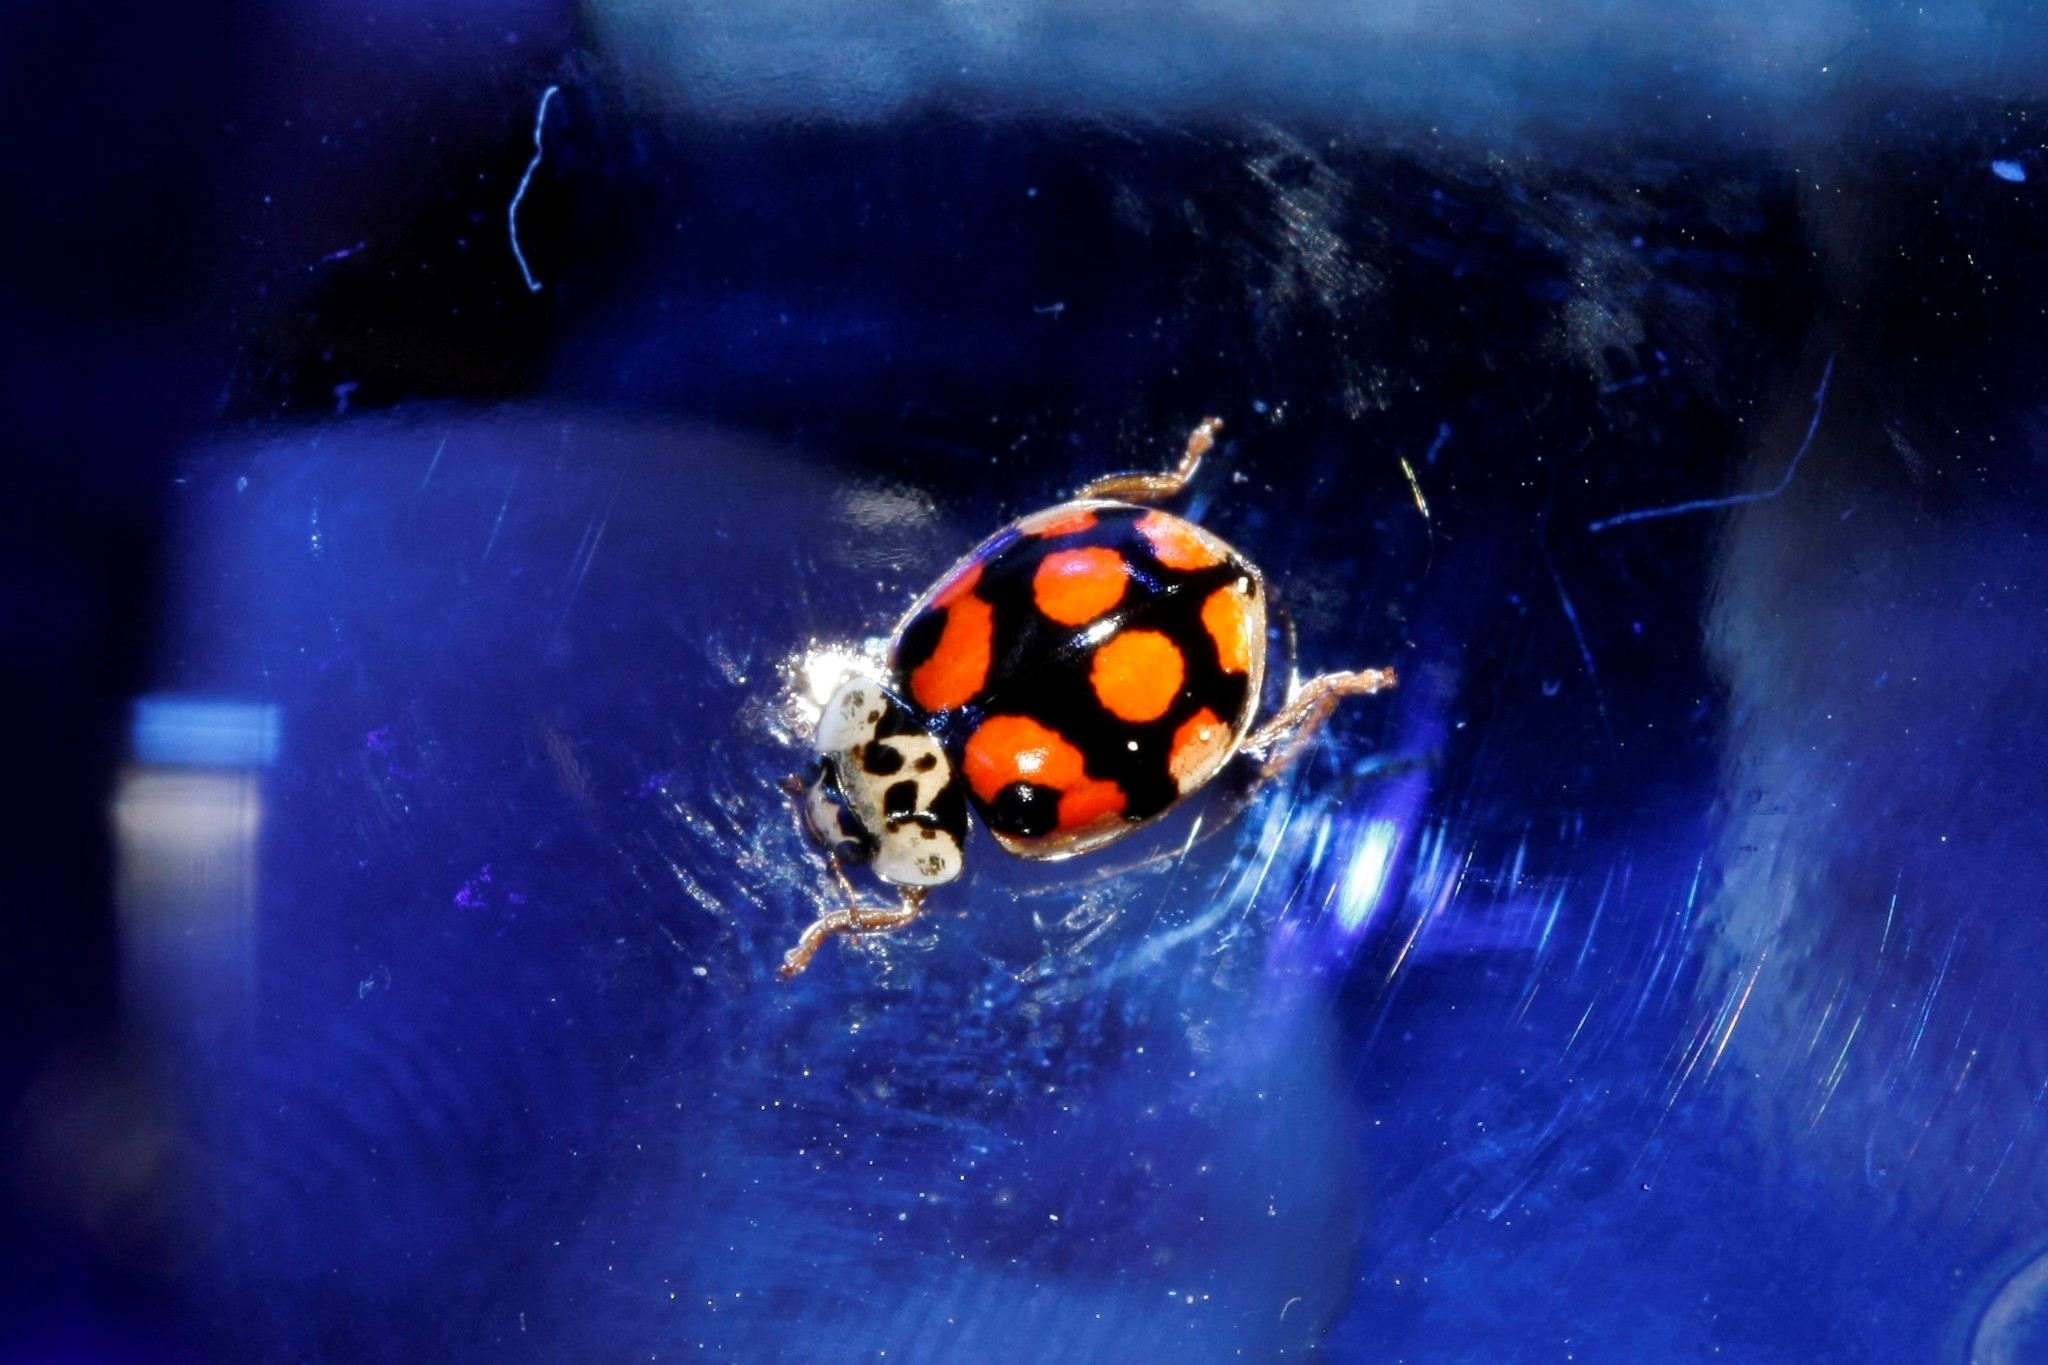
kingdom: Animalia
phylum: Arthropoda
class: Insecta
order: Coleoptera
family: Coccinellidae
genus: Adalia
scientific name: Adalia decempunctata
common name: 10-spot ladybird
